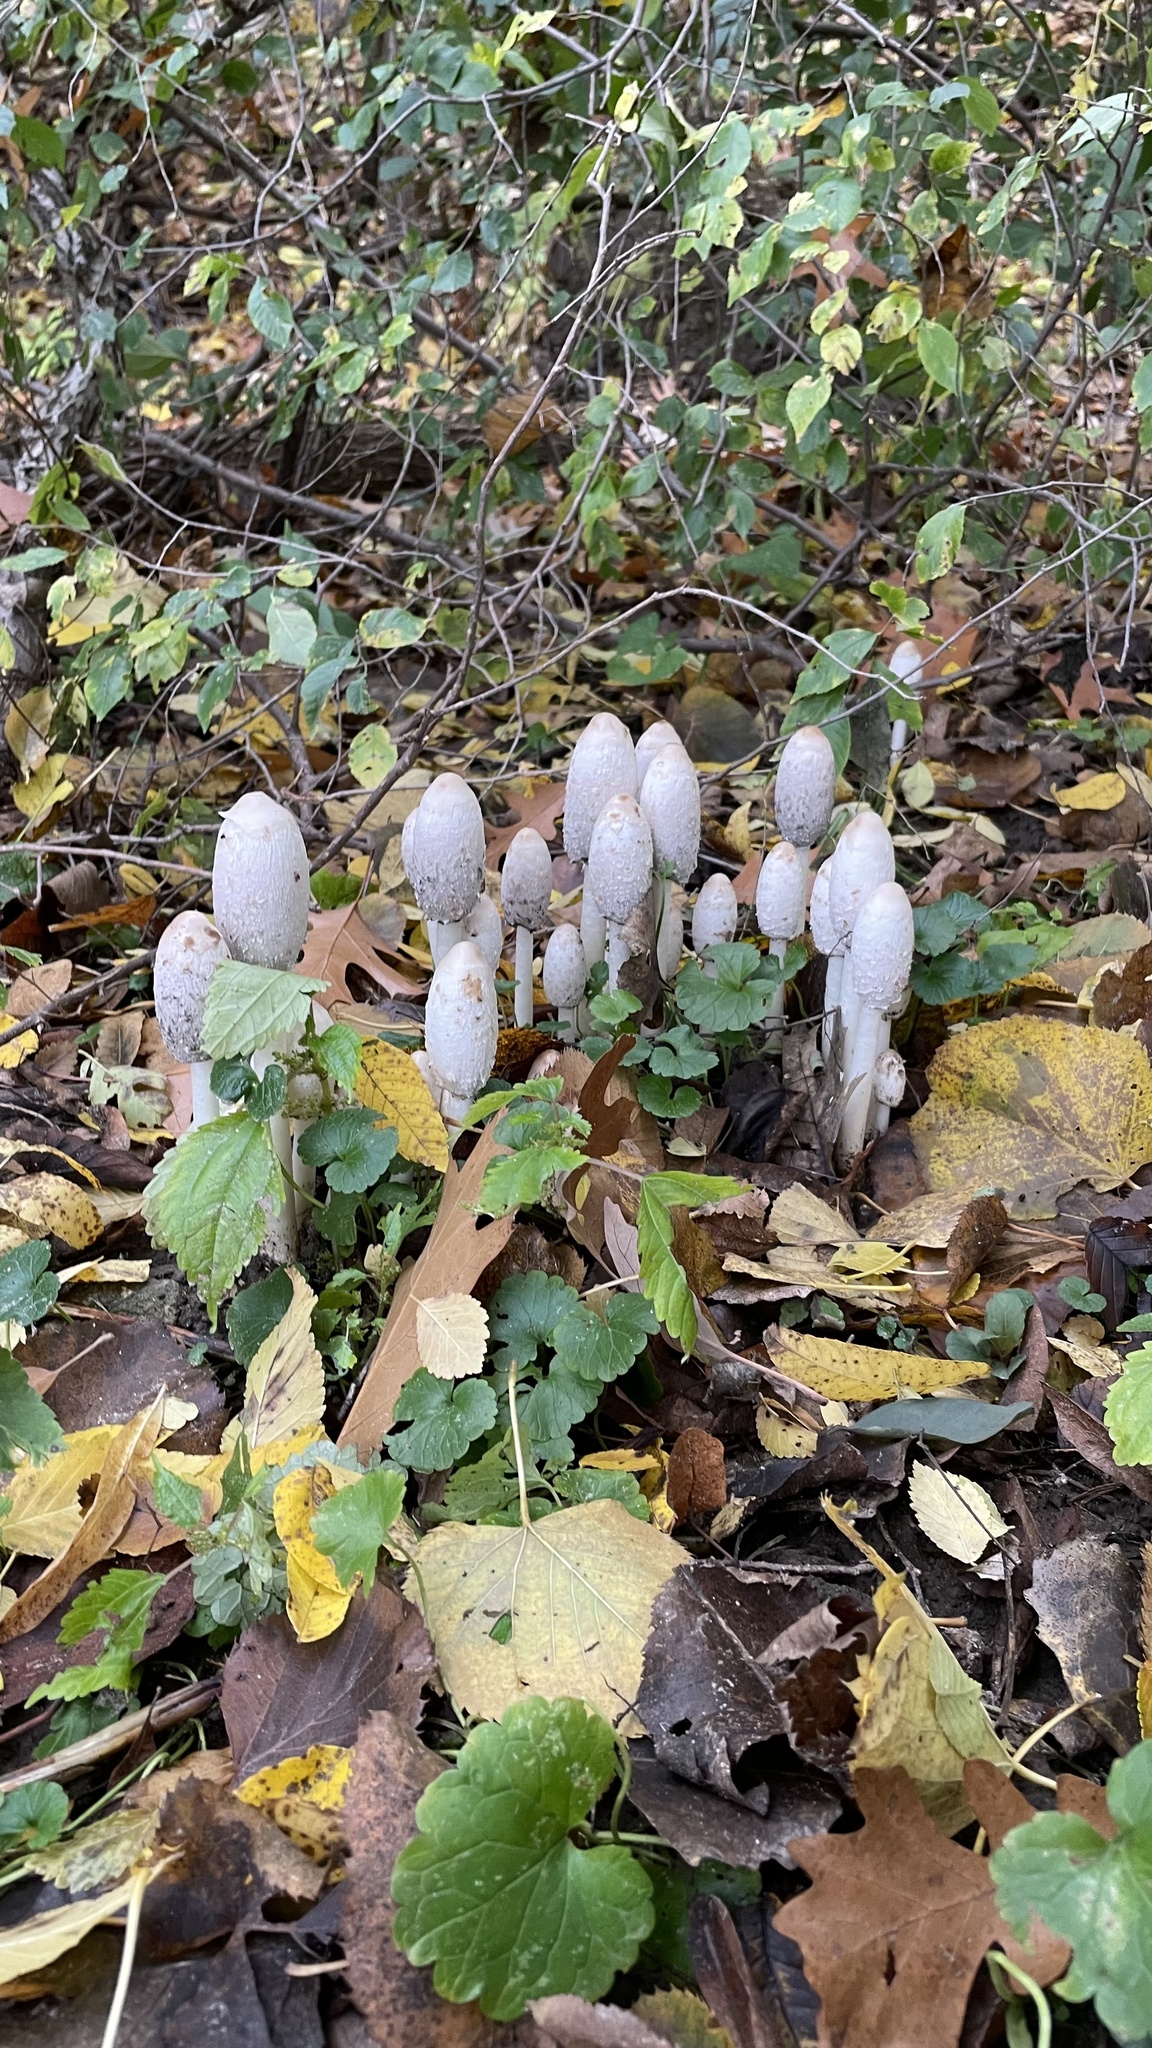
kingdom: Fungi
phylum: Basidiomycota
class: Agaricomycetes
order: Agaricales
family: Agaricaceae
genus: Coprinus
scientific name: Coprinus comatus
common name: Lawyer's wig
